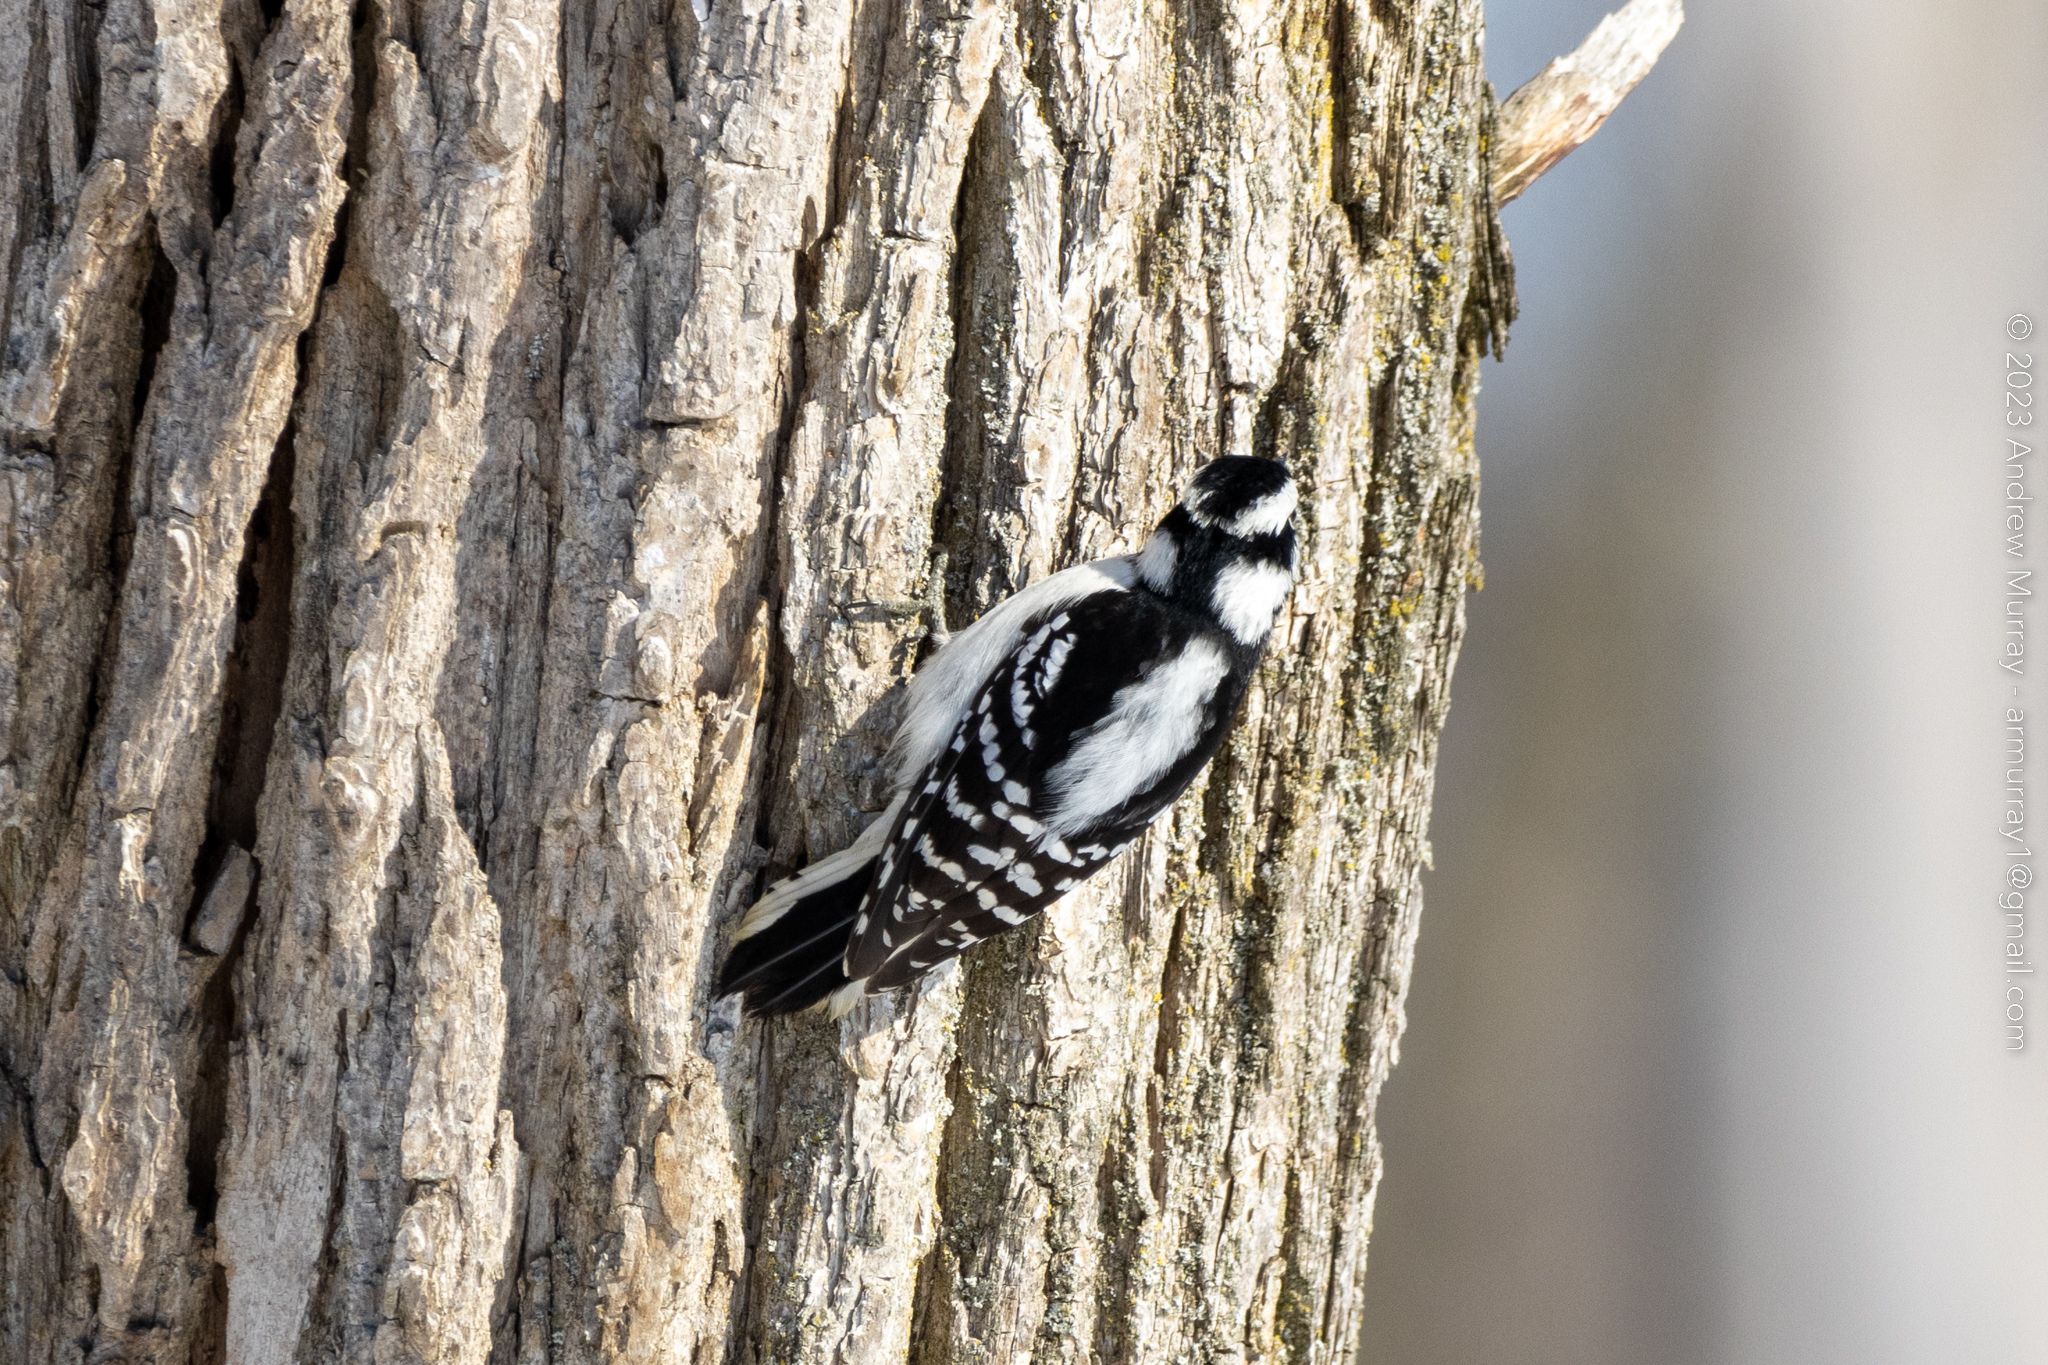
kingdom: Animalia
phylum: Chordata
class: Aves
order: Piciformes
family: Picidae
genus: Dryobates
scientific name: Dryobates pubescens
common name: Downy woodpecker
